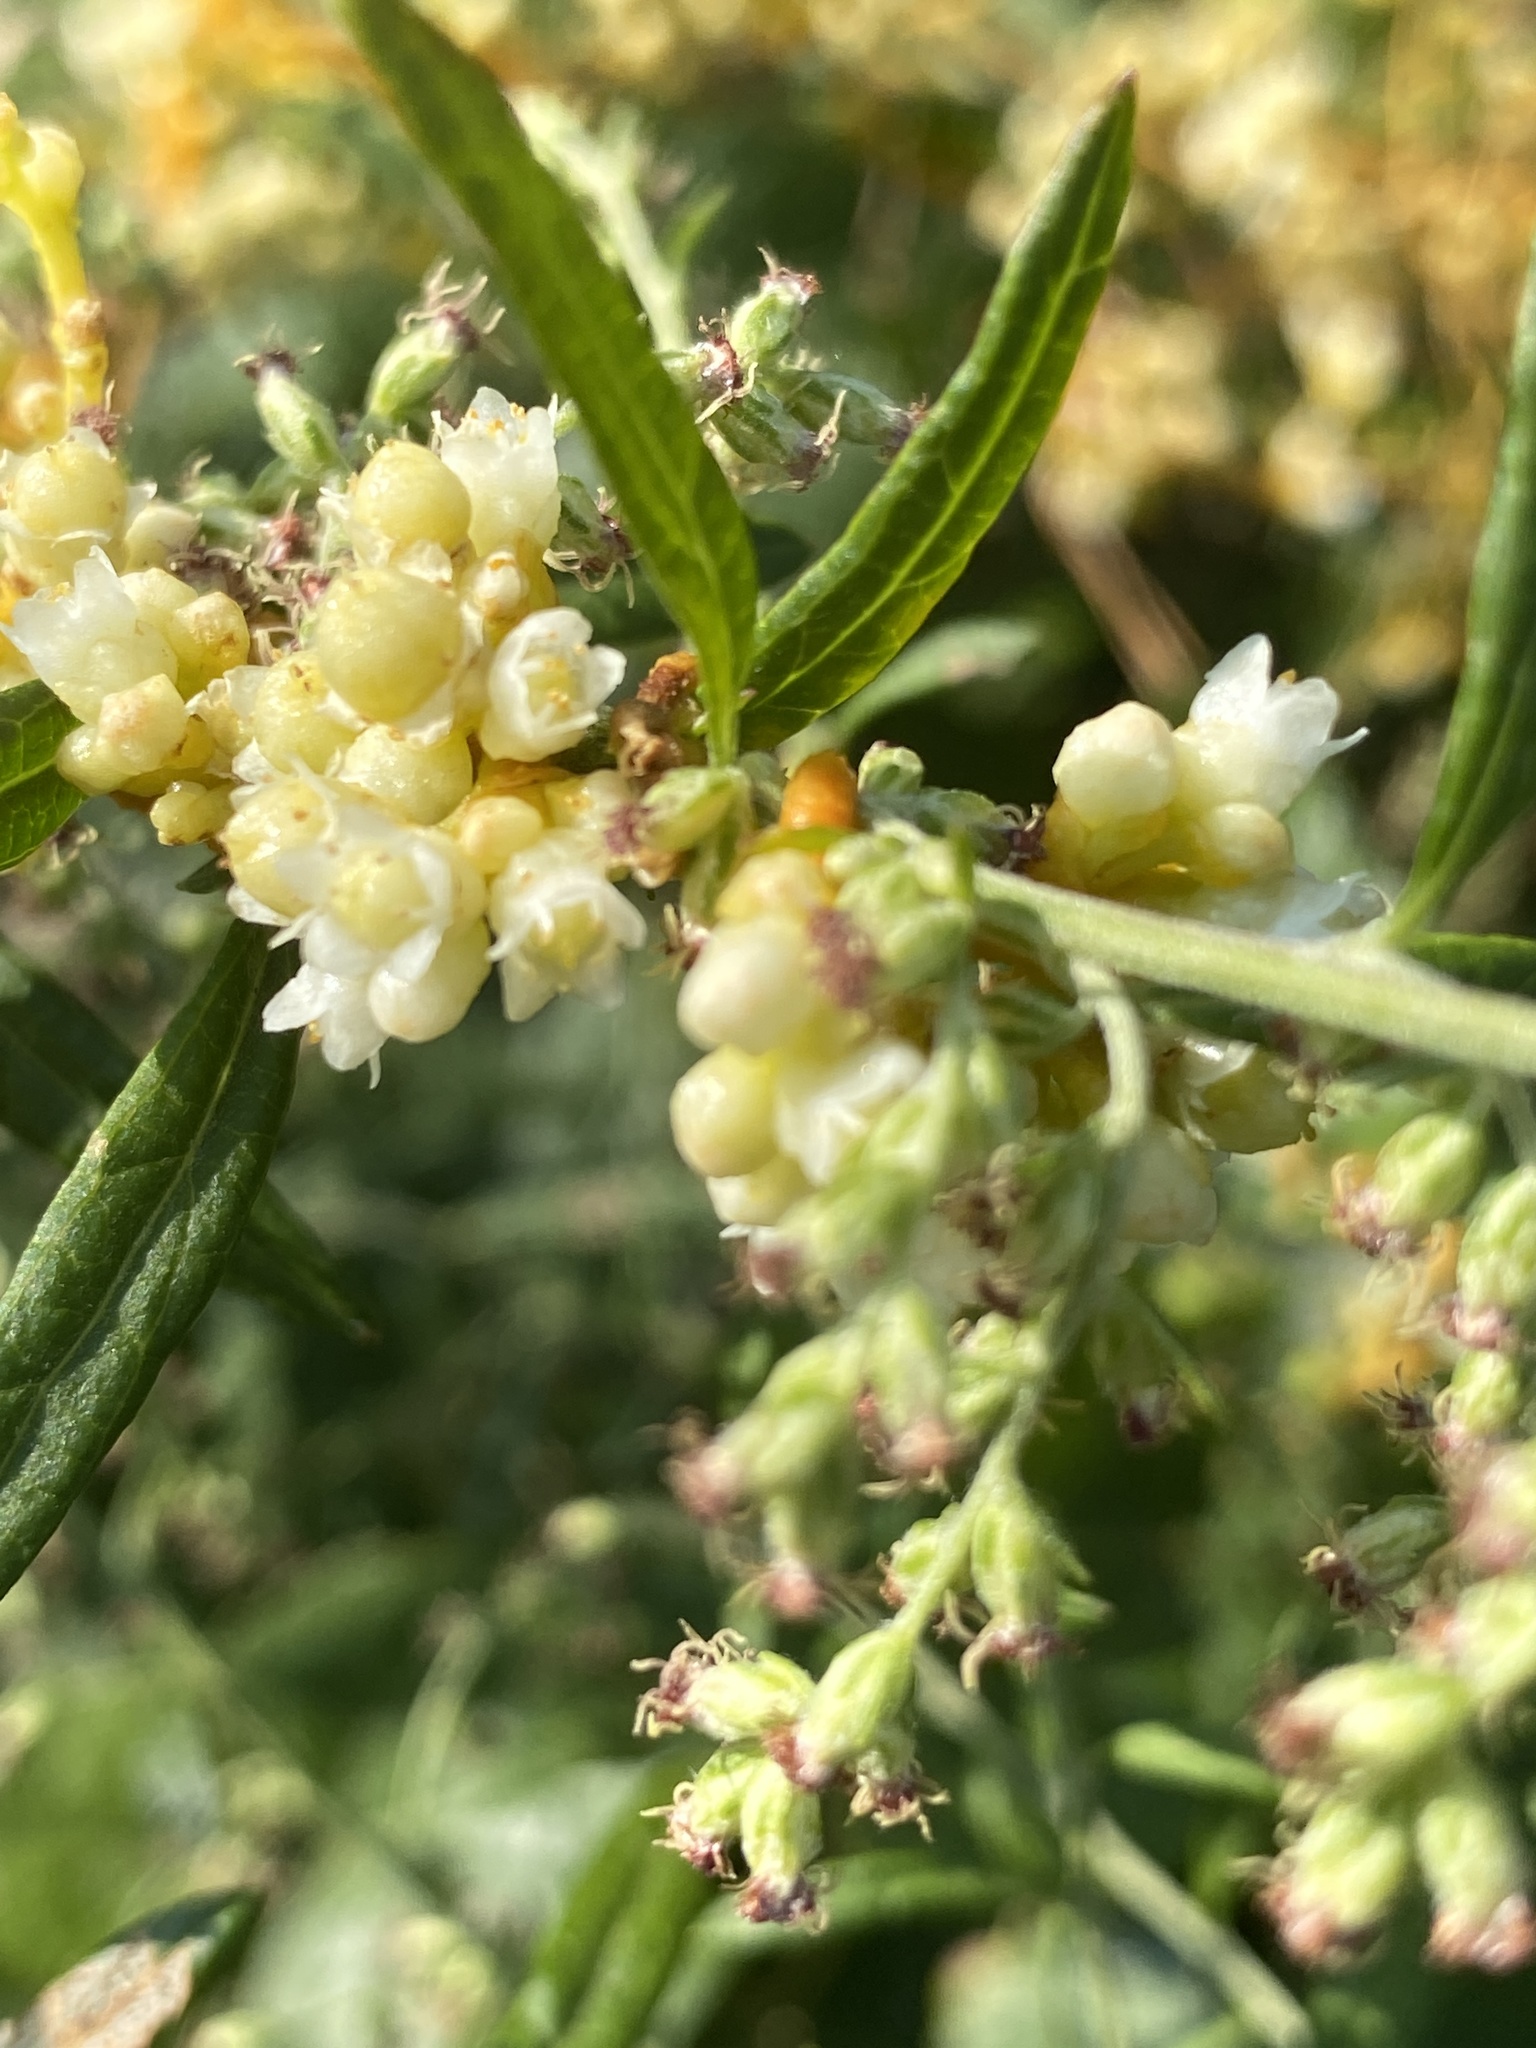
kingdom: Plantae
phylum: Tracheophyta
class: Magnoliopsida
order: Solanales
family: Convolvulaceae
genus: Cuscuta
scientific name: Cuscuta gronovii
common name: Common dodder
